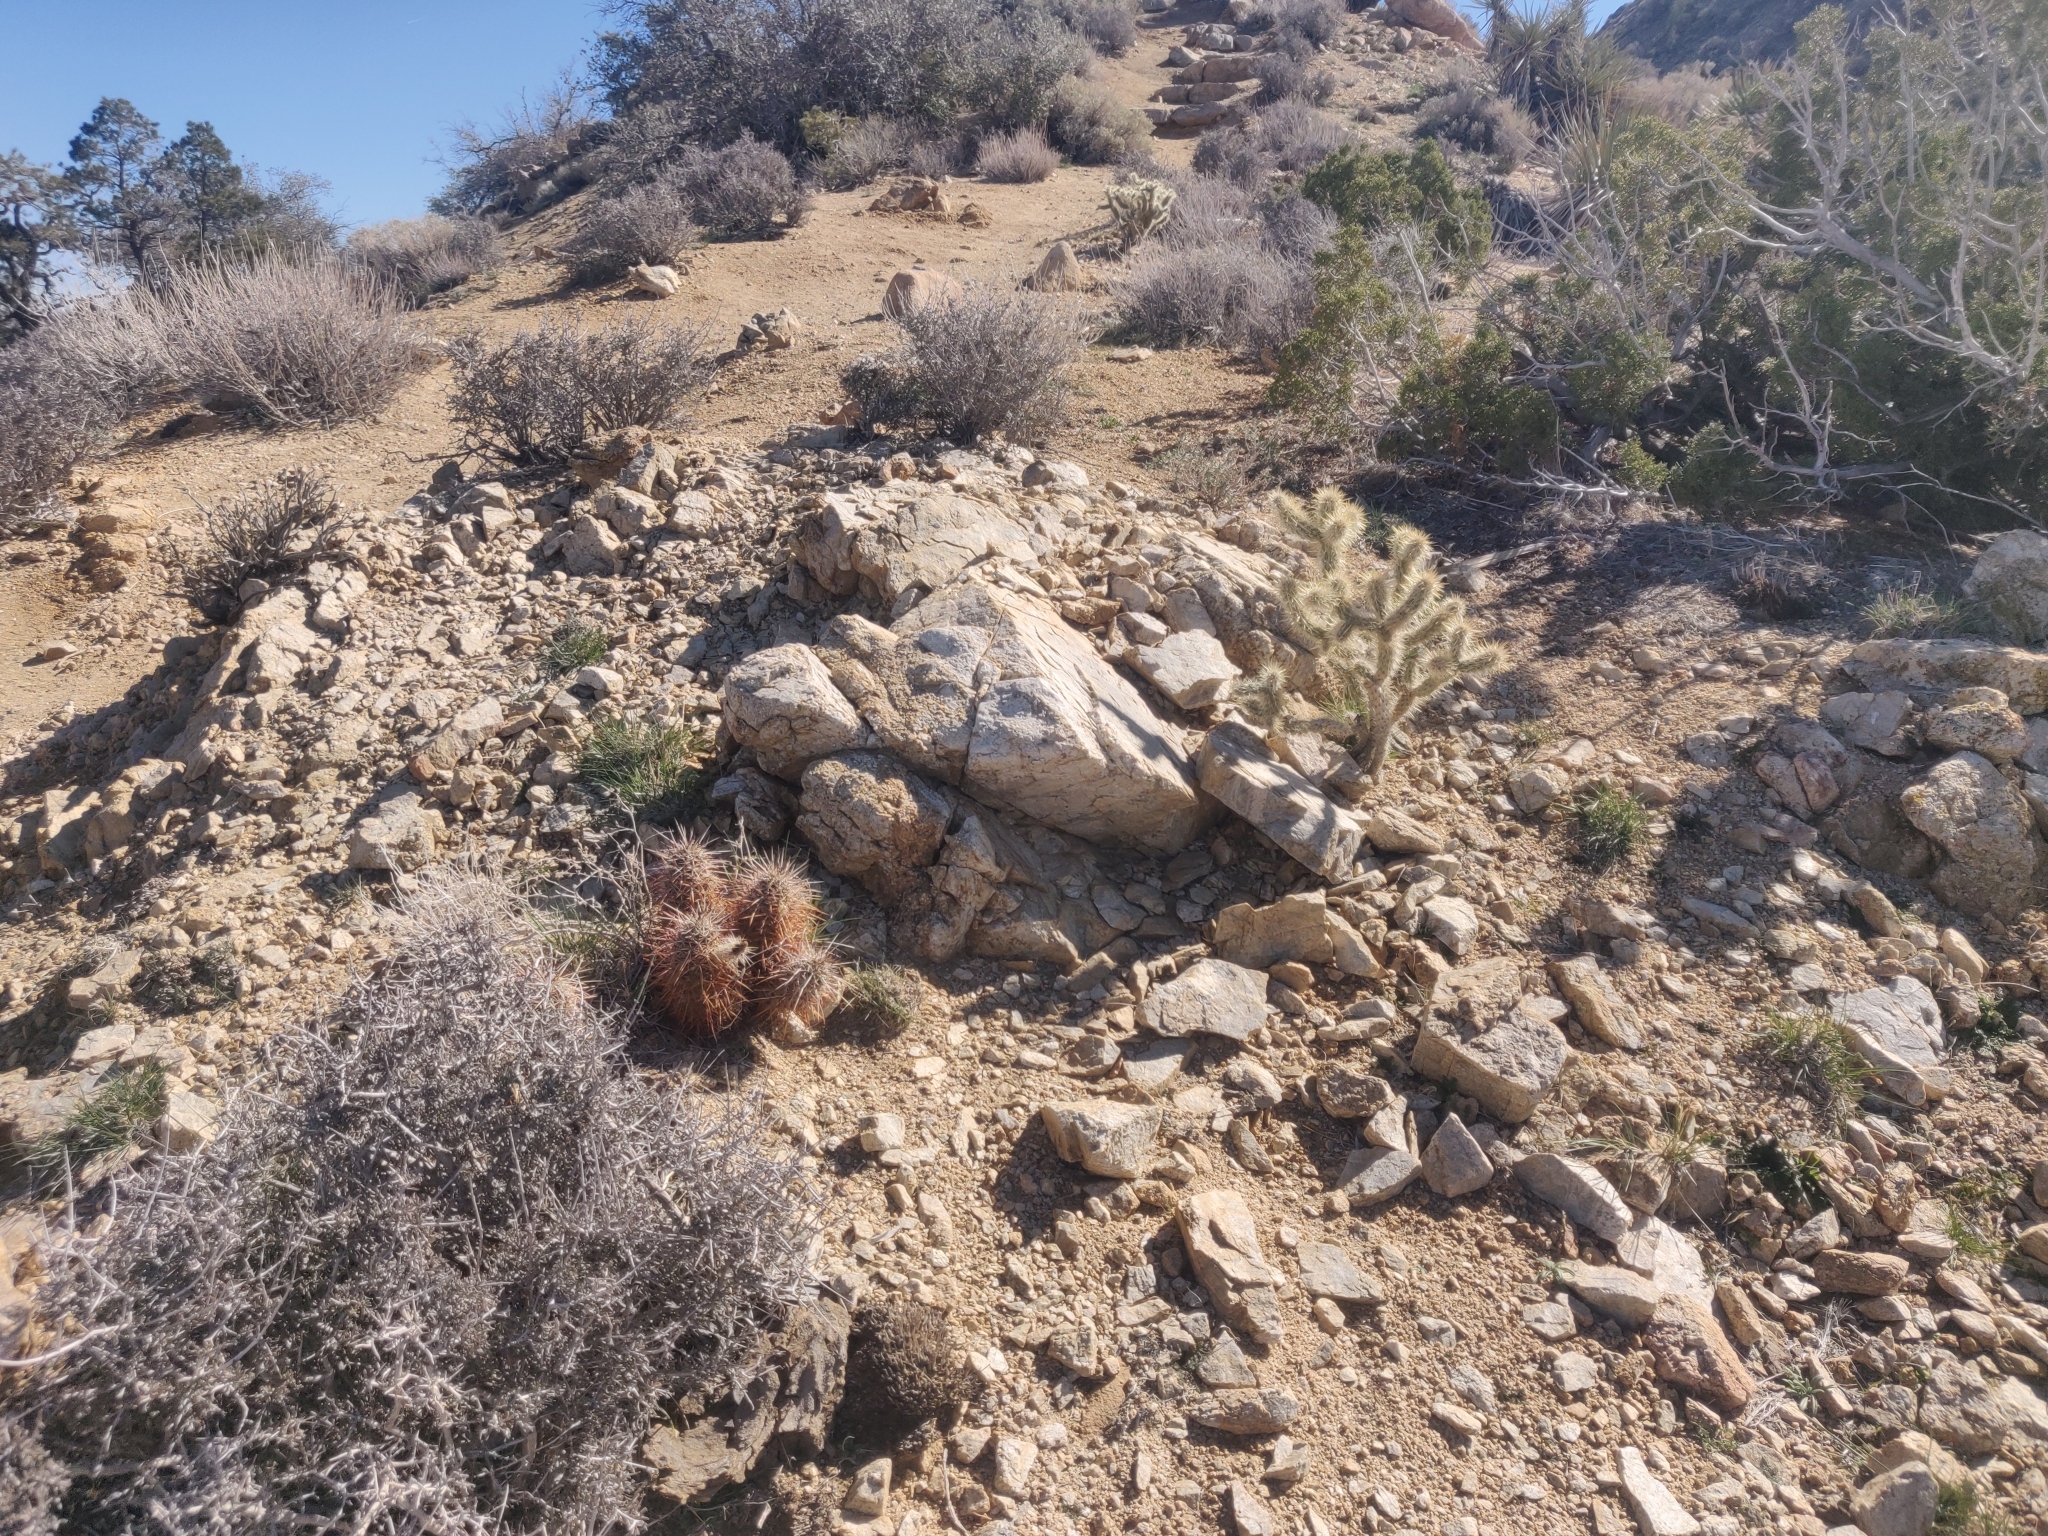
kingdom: Plantae
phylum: Tracheophyta
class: Magnoliopsida
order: Caryophyllales
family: Cactaceae
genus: Echinocereus
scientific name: Echinocereus engelmannii
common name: Engelmann's hedgehog cactus
